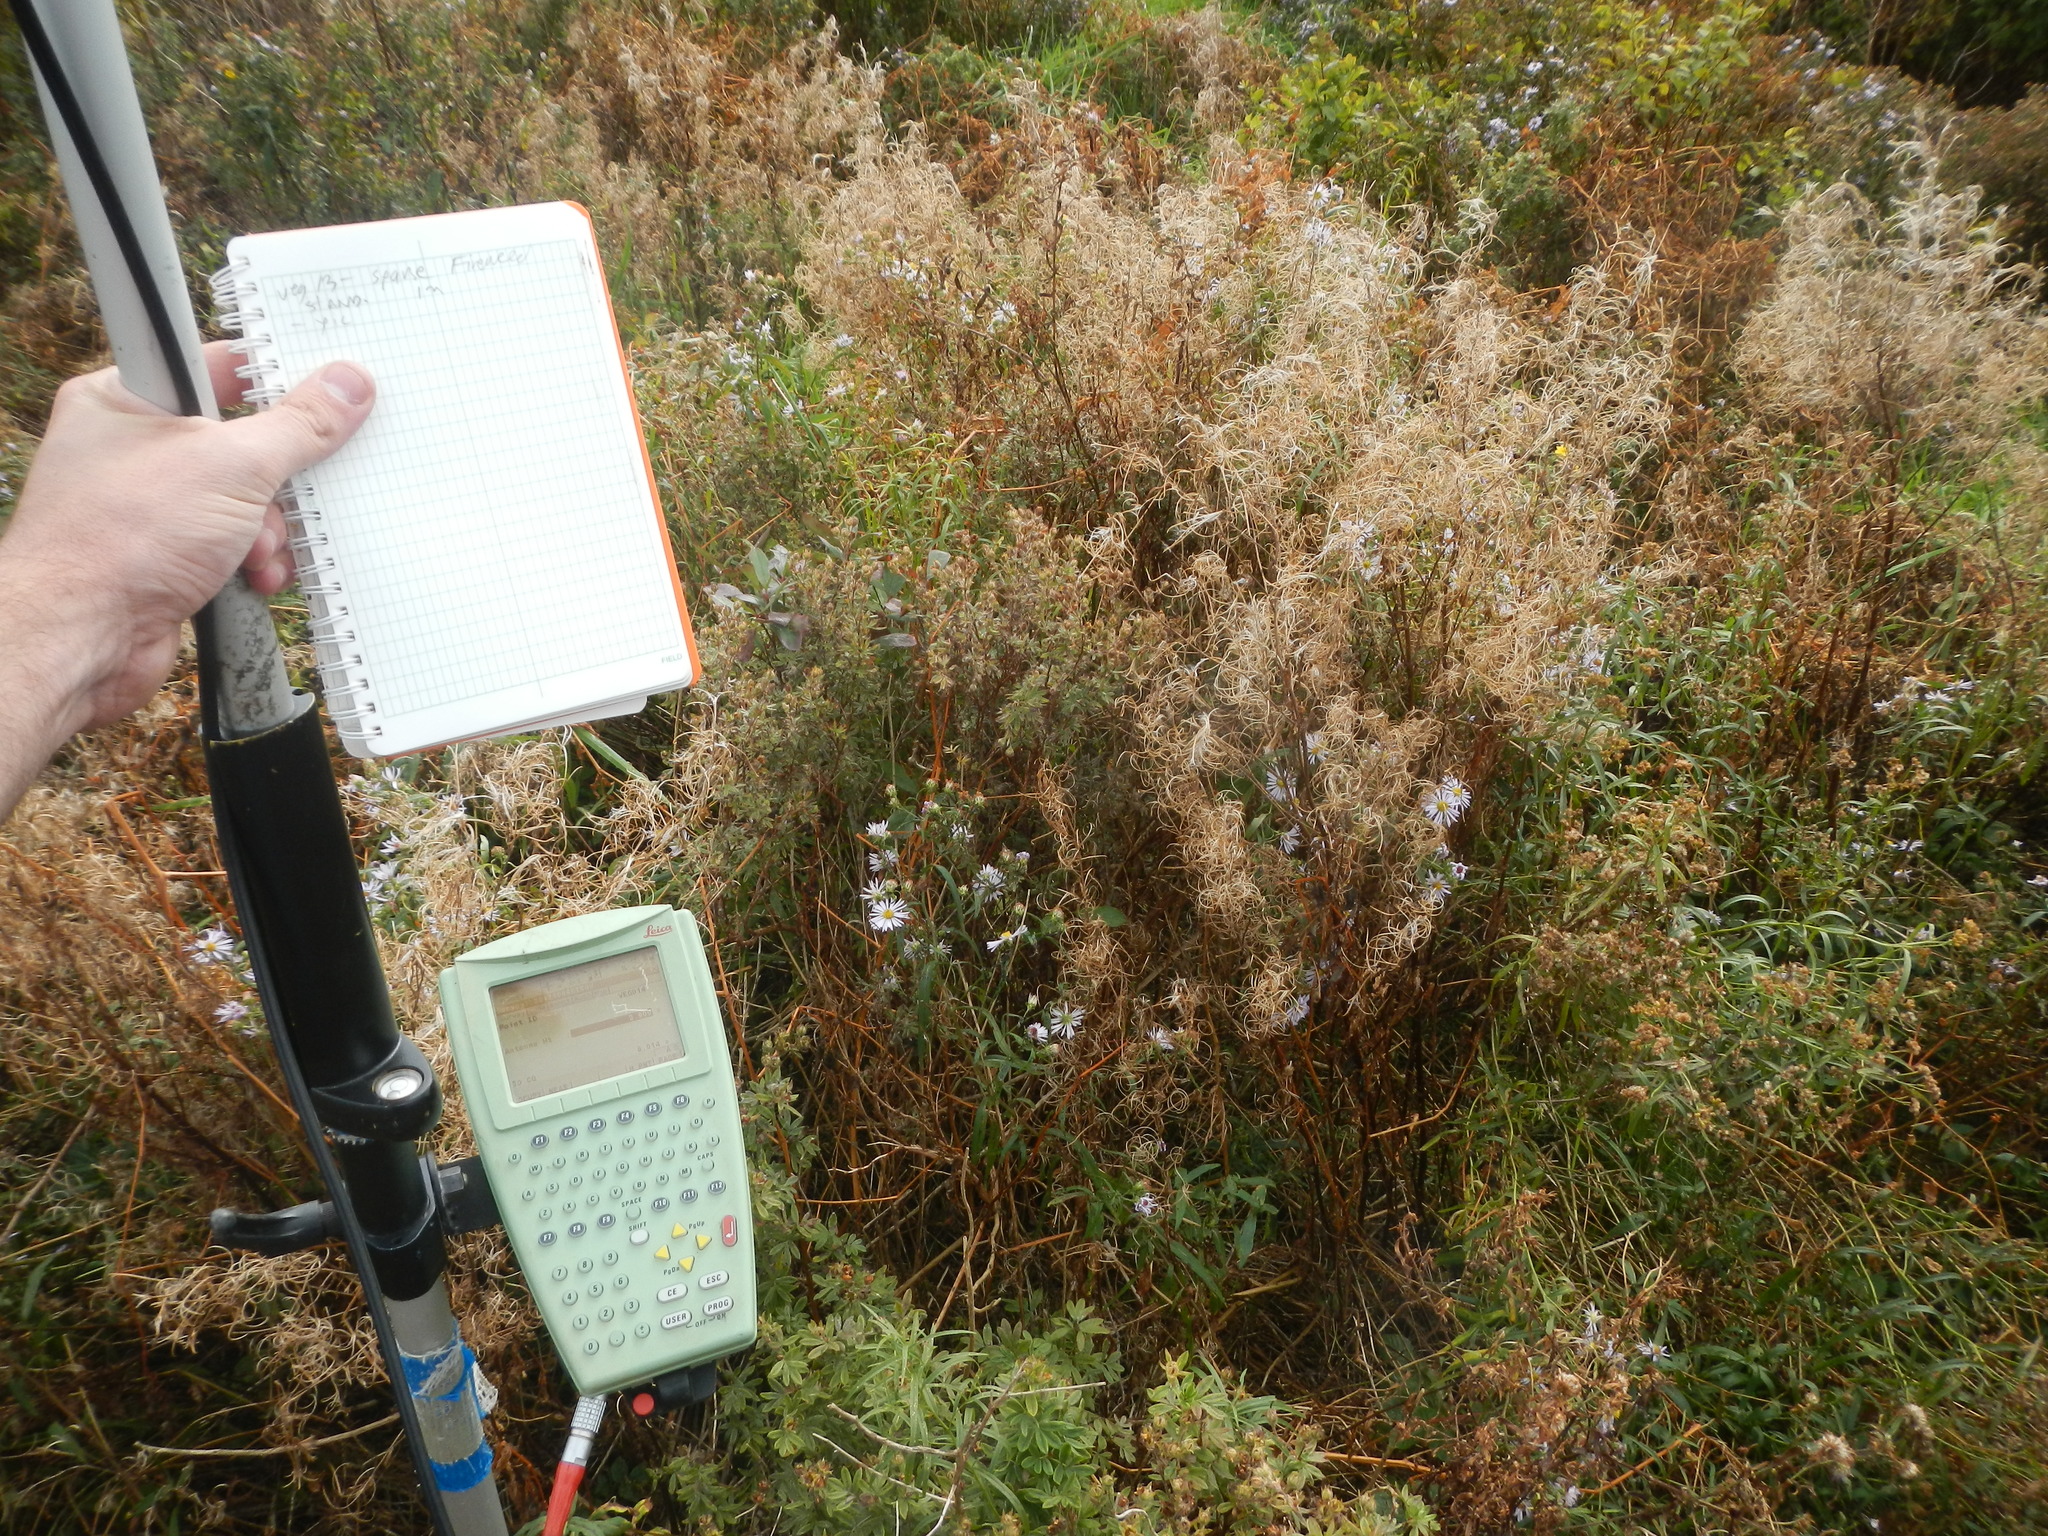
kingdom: Plantae
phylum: Tracheophyta
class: Magnoliopsida
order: Myrtales
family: Onagraceae
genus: Chamaenerion
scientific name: Chamaenerion angustifolium
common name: Fireweed
